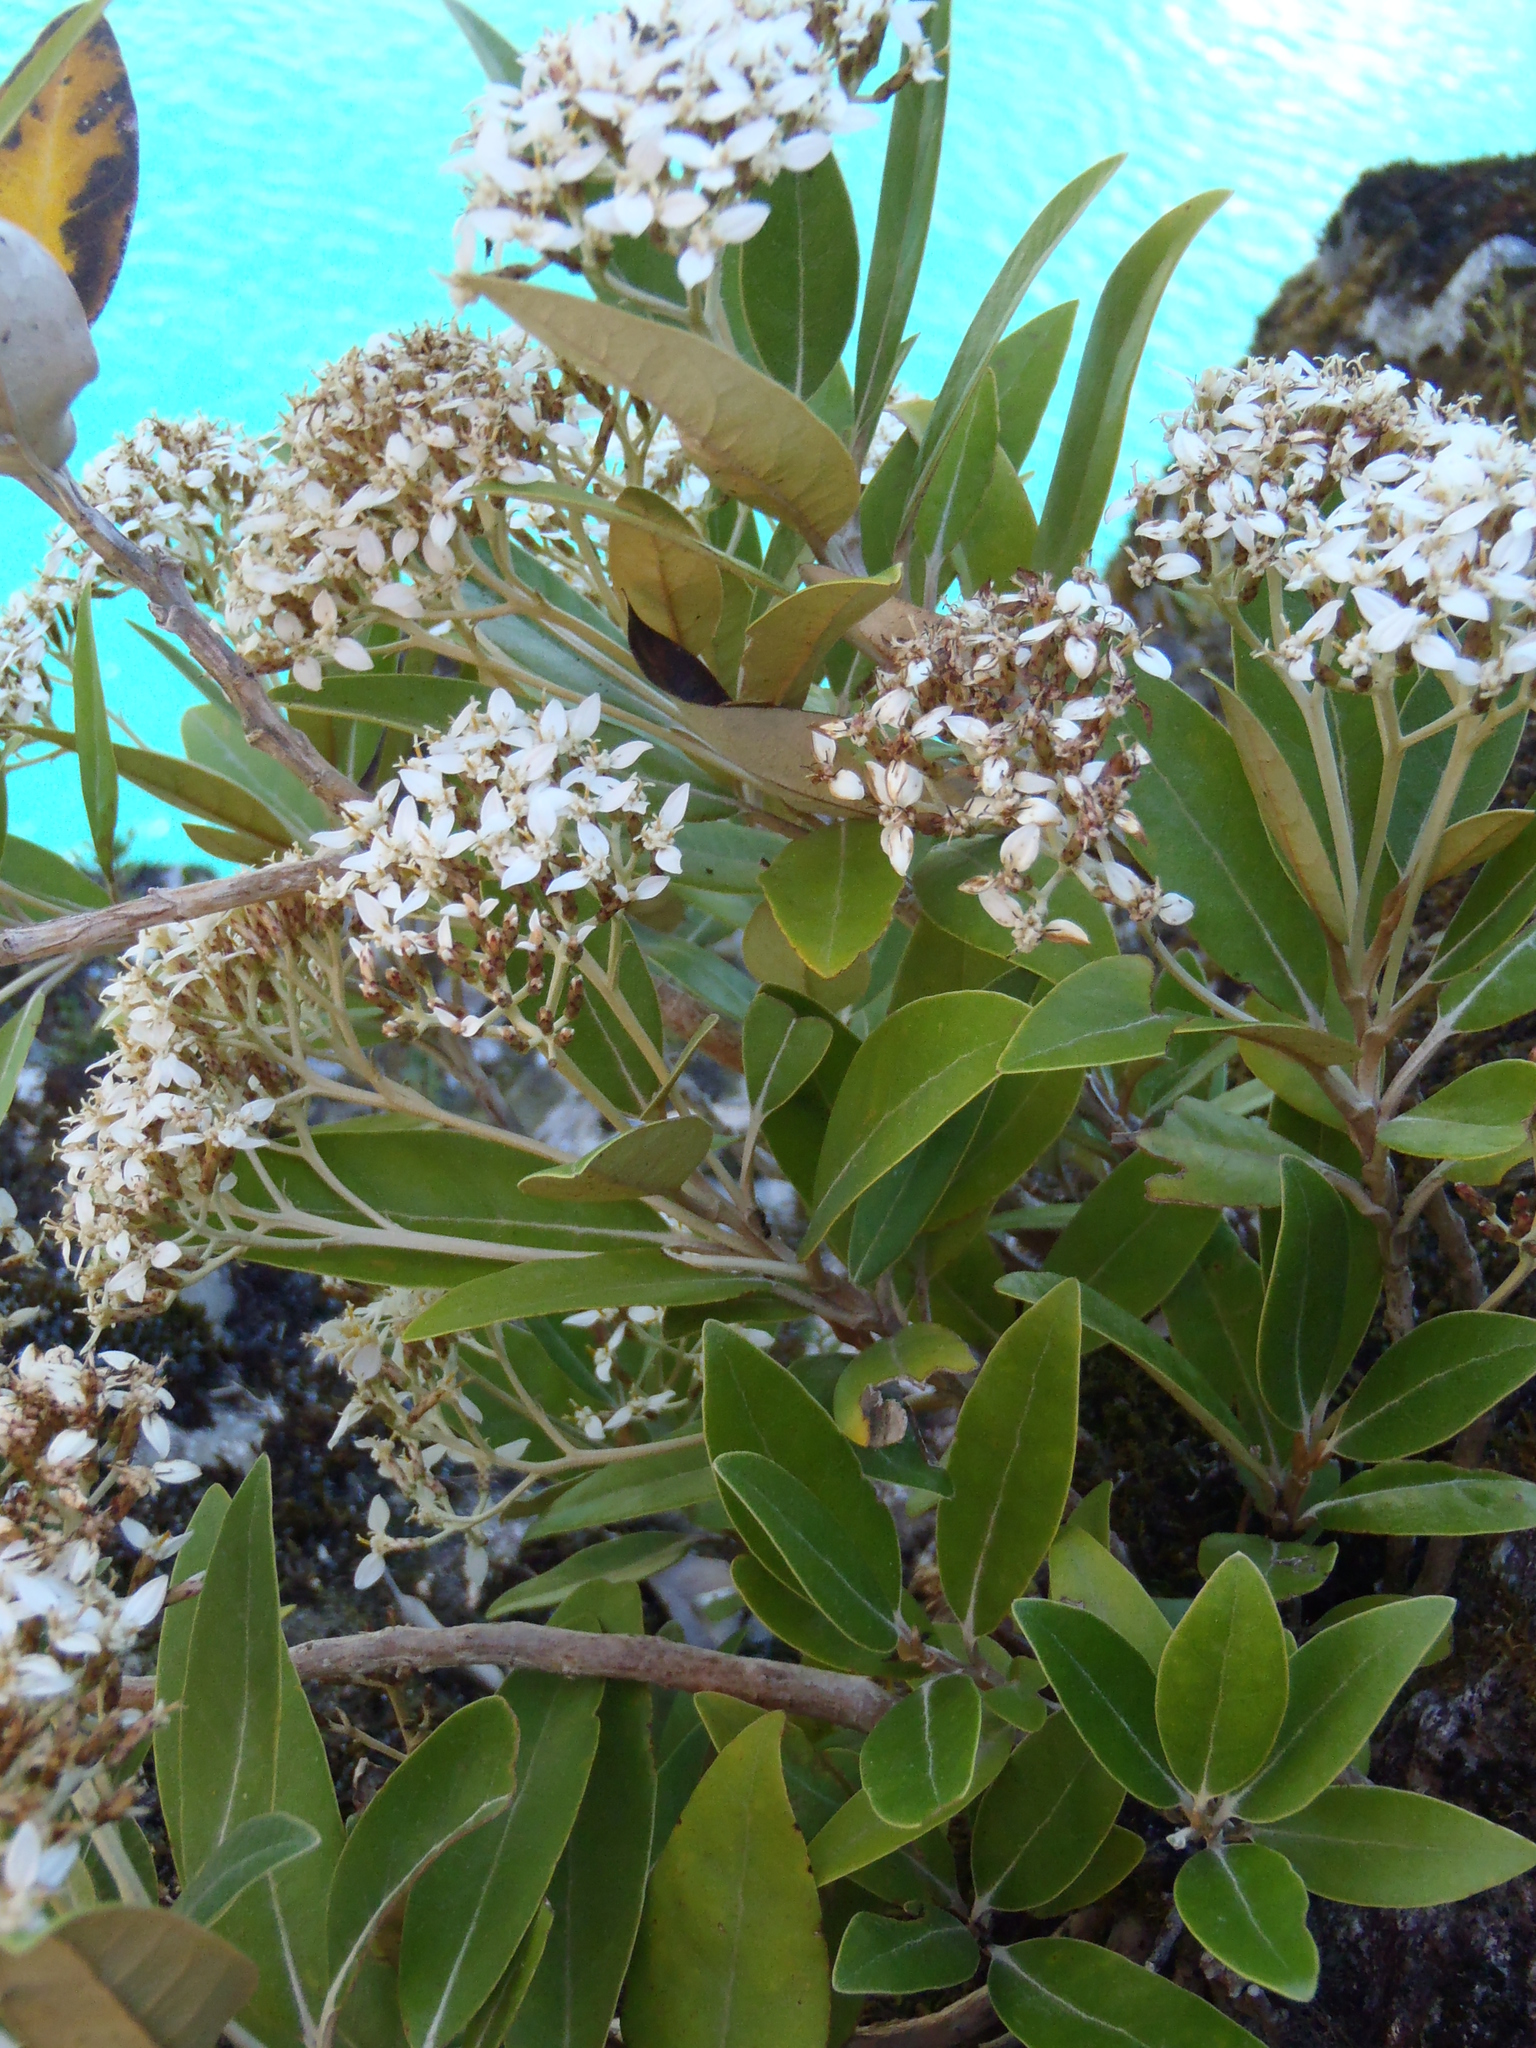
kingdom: Plantae
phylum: Tracheophyta
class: Magnoliopsida
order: Asterales
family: Asteraceae
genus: Olearia
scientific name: Olearia avicenniifolia
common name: Mangrove-leaf daisybush
